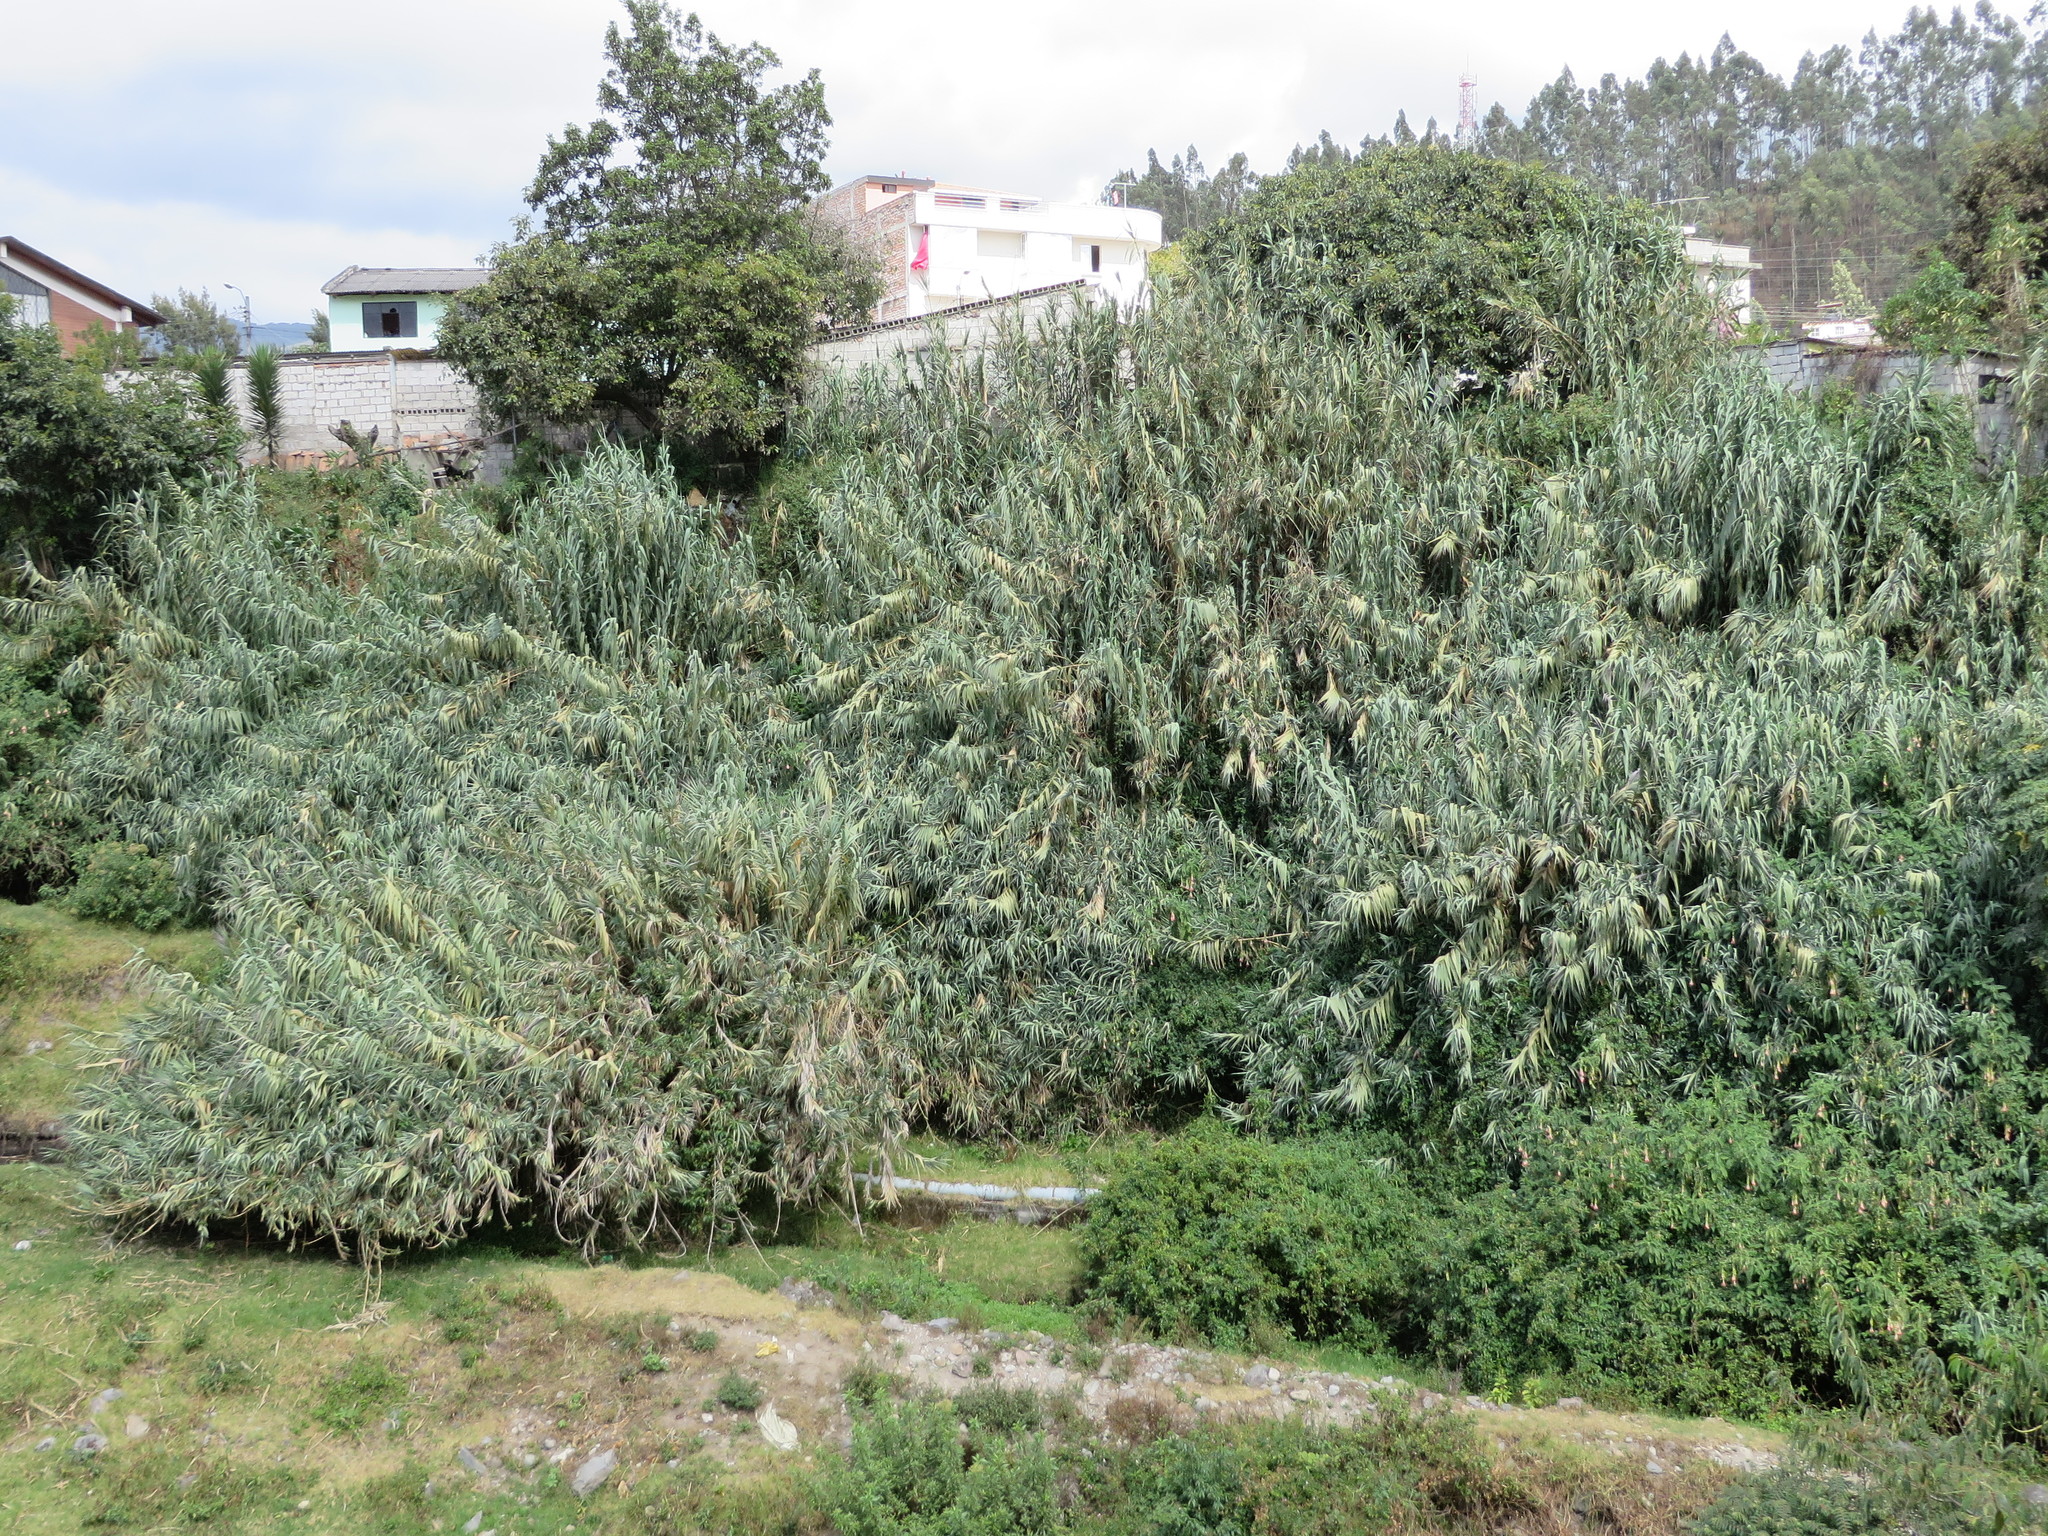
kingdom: Plantae
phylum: Tracheophyta
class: Liliopsida
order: Poales
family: Poaceae
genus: Arundo
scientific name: Arundo donax
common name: Giant reed
